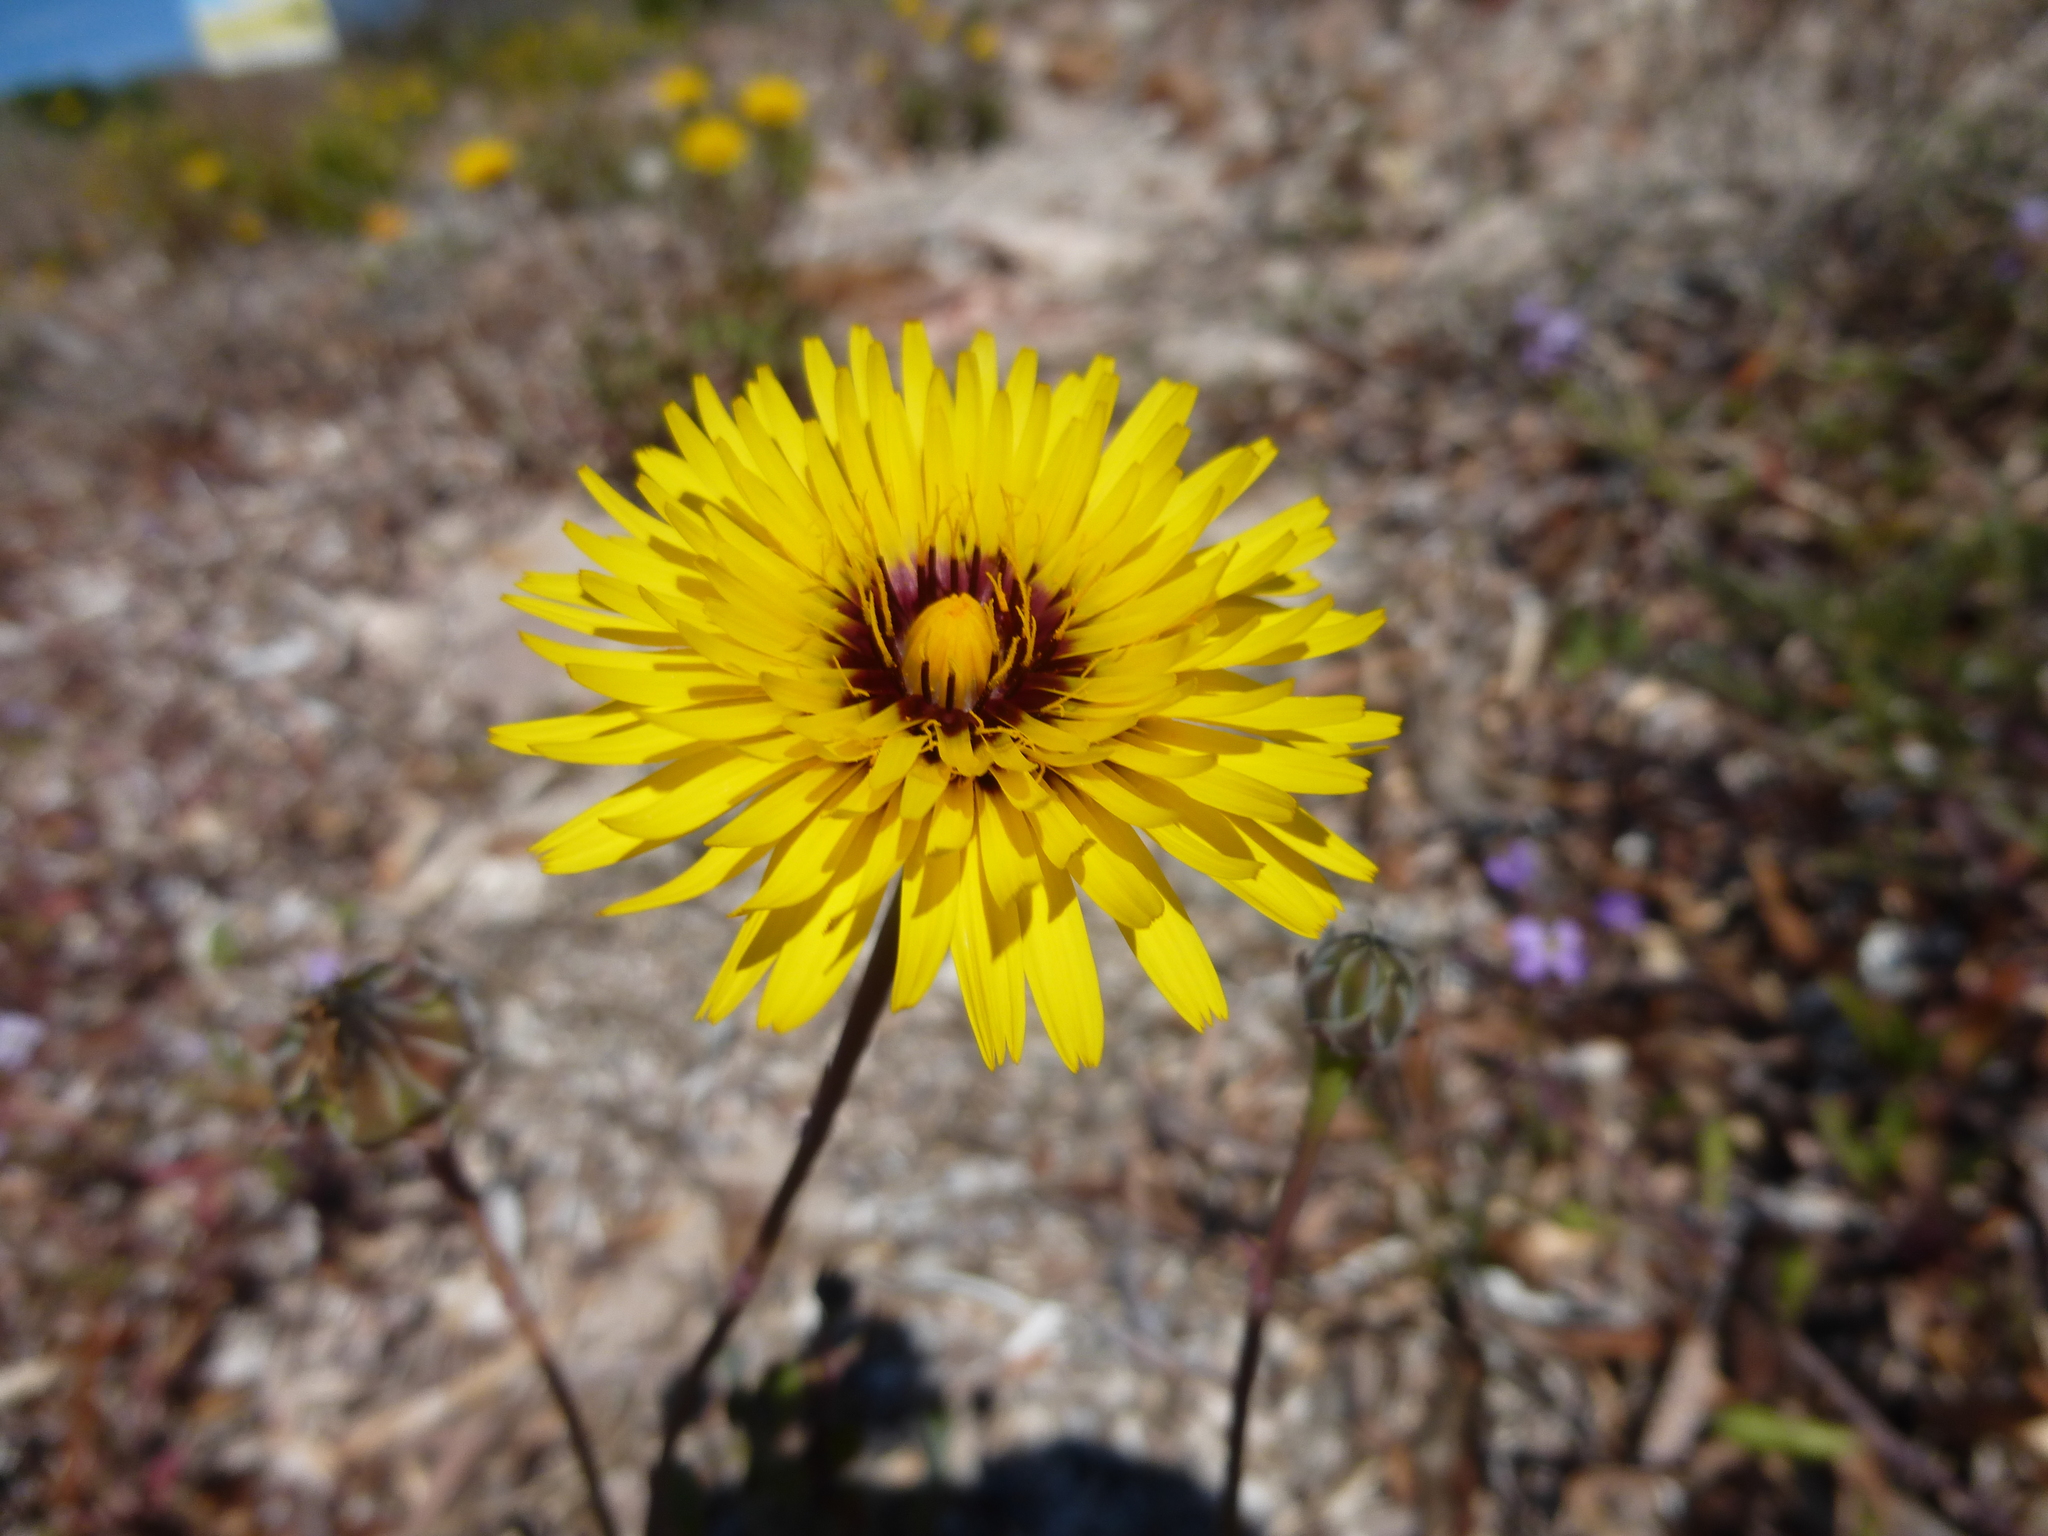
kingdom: Plantae
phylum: Tracheophyta
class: Magnoliopsida
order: Asterales
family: Asteraceae
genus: Reichardia
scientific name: Reichardia tingitana
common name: Reichardia
